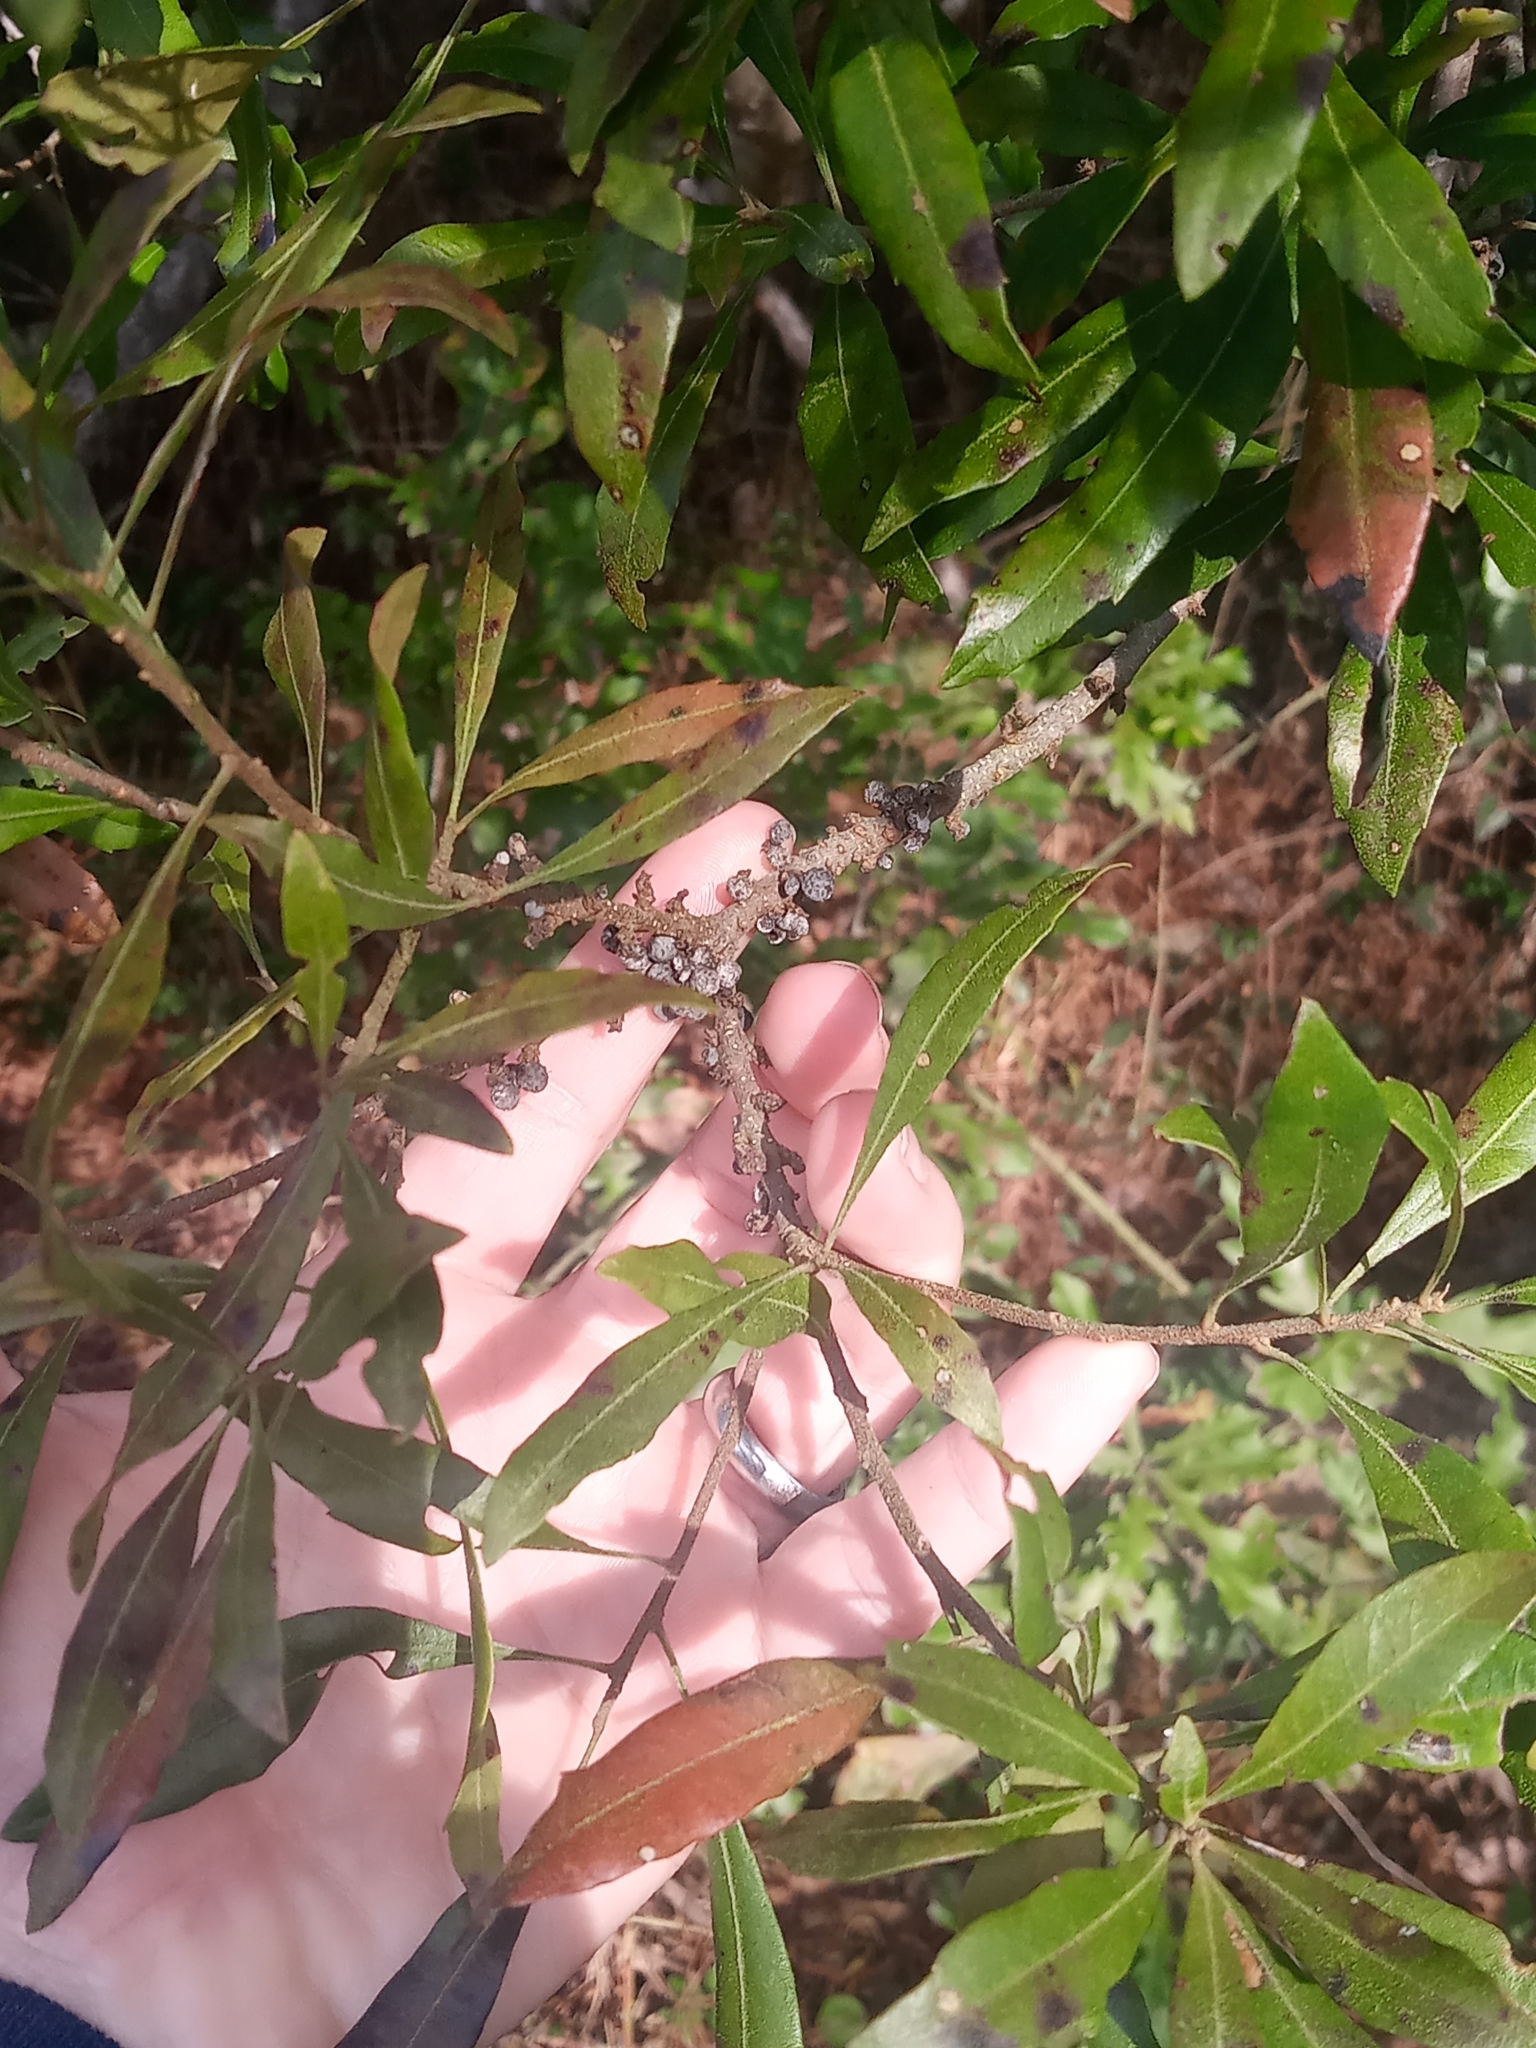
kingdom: Plantae
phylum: Tracheophyta
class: Magnoliopsida
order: Fagales
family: Myricaceae
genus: Morella
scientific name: Morella cerifera
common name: Wax myrtle
